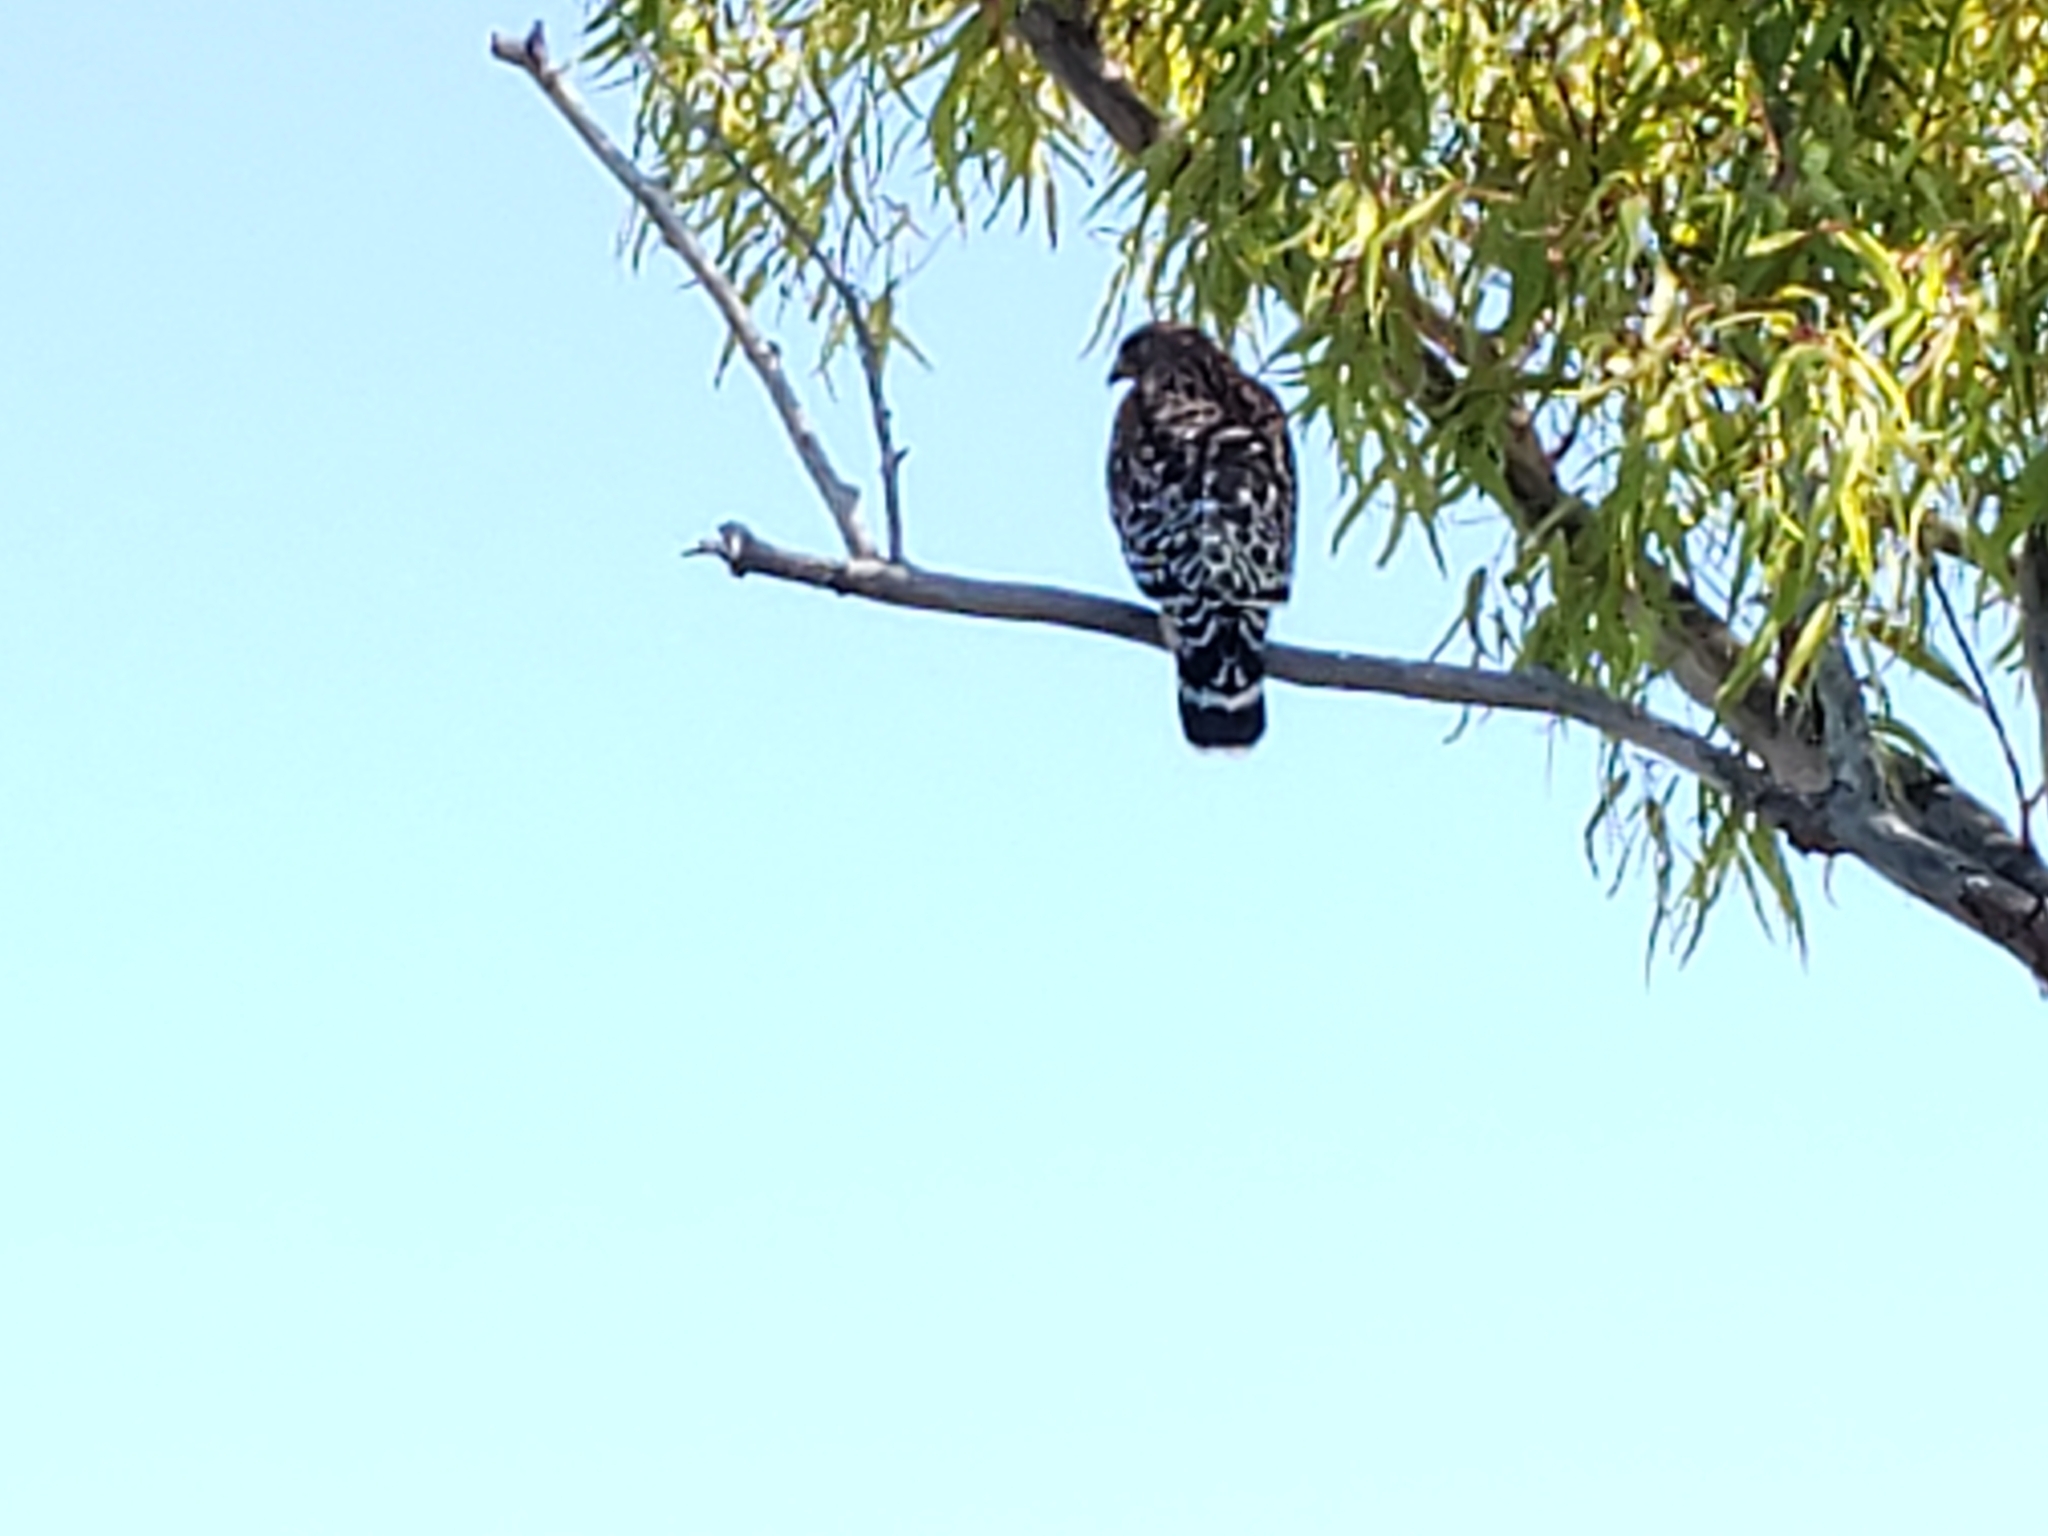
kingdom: Animalia
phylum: Chordata
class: Aves
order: Accipitriformes
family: Accipitridae
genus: Buteo
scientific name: Buteo lineatus
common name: Red-shouldered hawk
